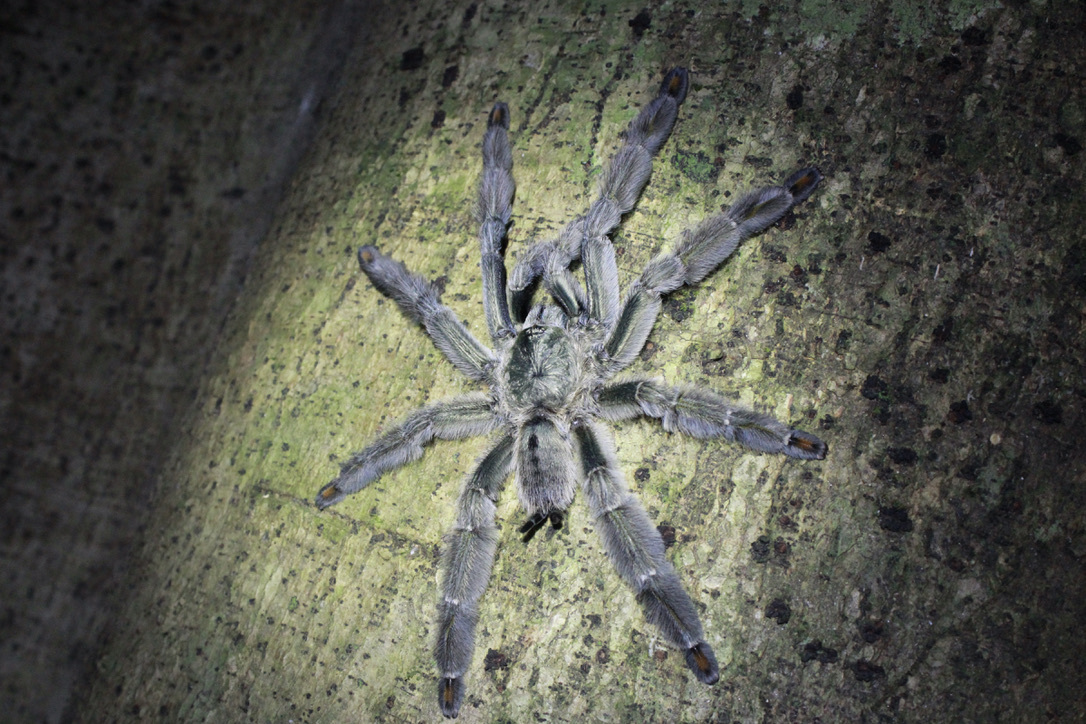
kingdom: Animalia
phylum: Arthropoda
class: Arachnida
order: Araneae
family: Theraphosidae
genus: Psalmopoeus
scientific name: Psalmopoeus cambridgei
